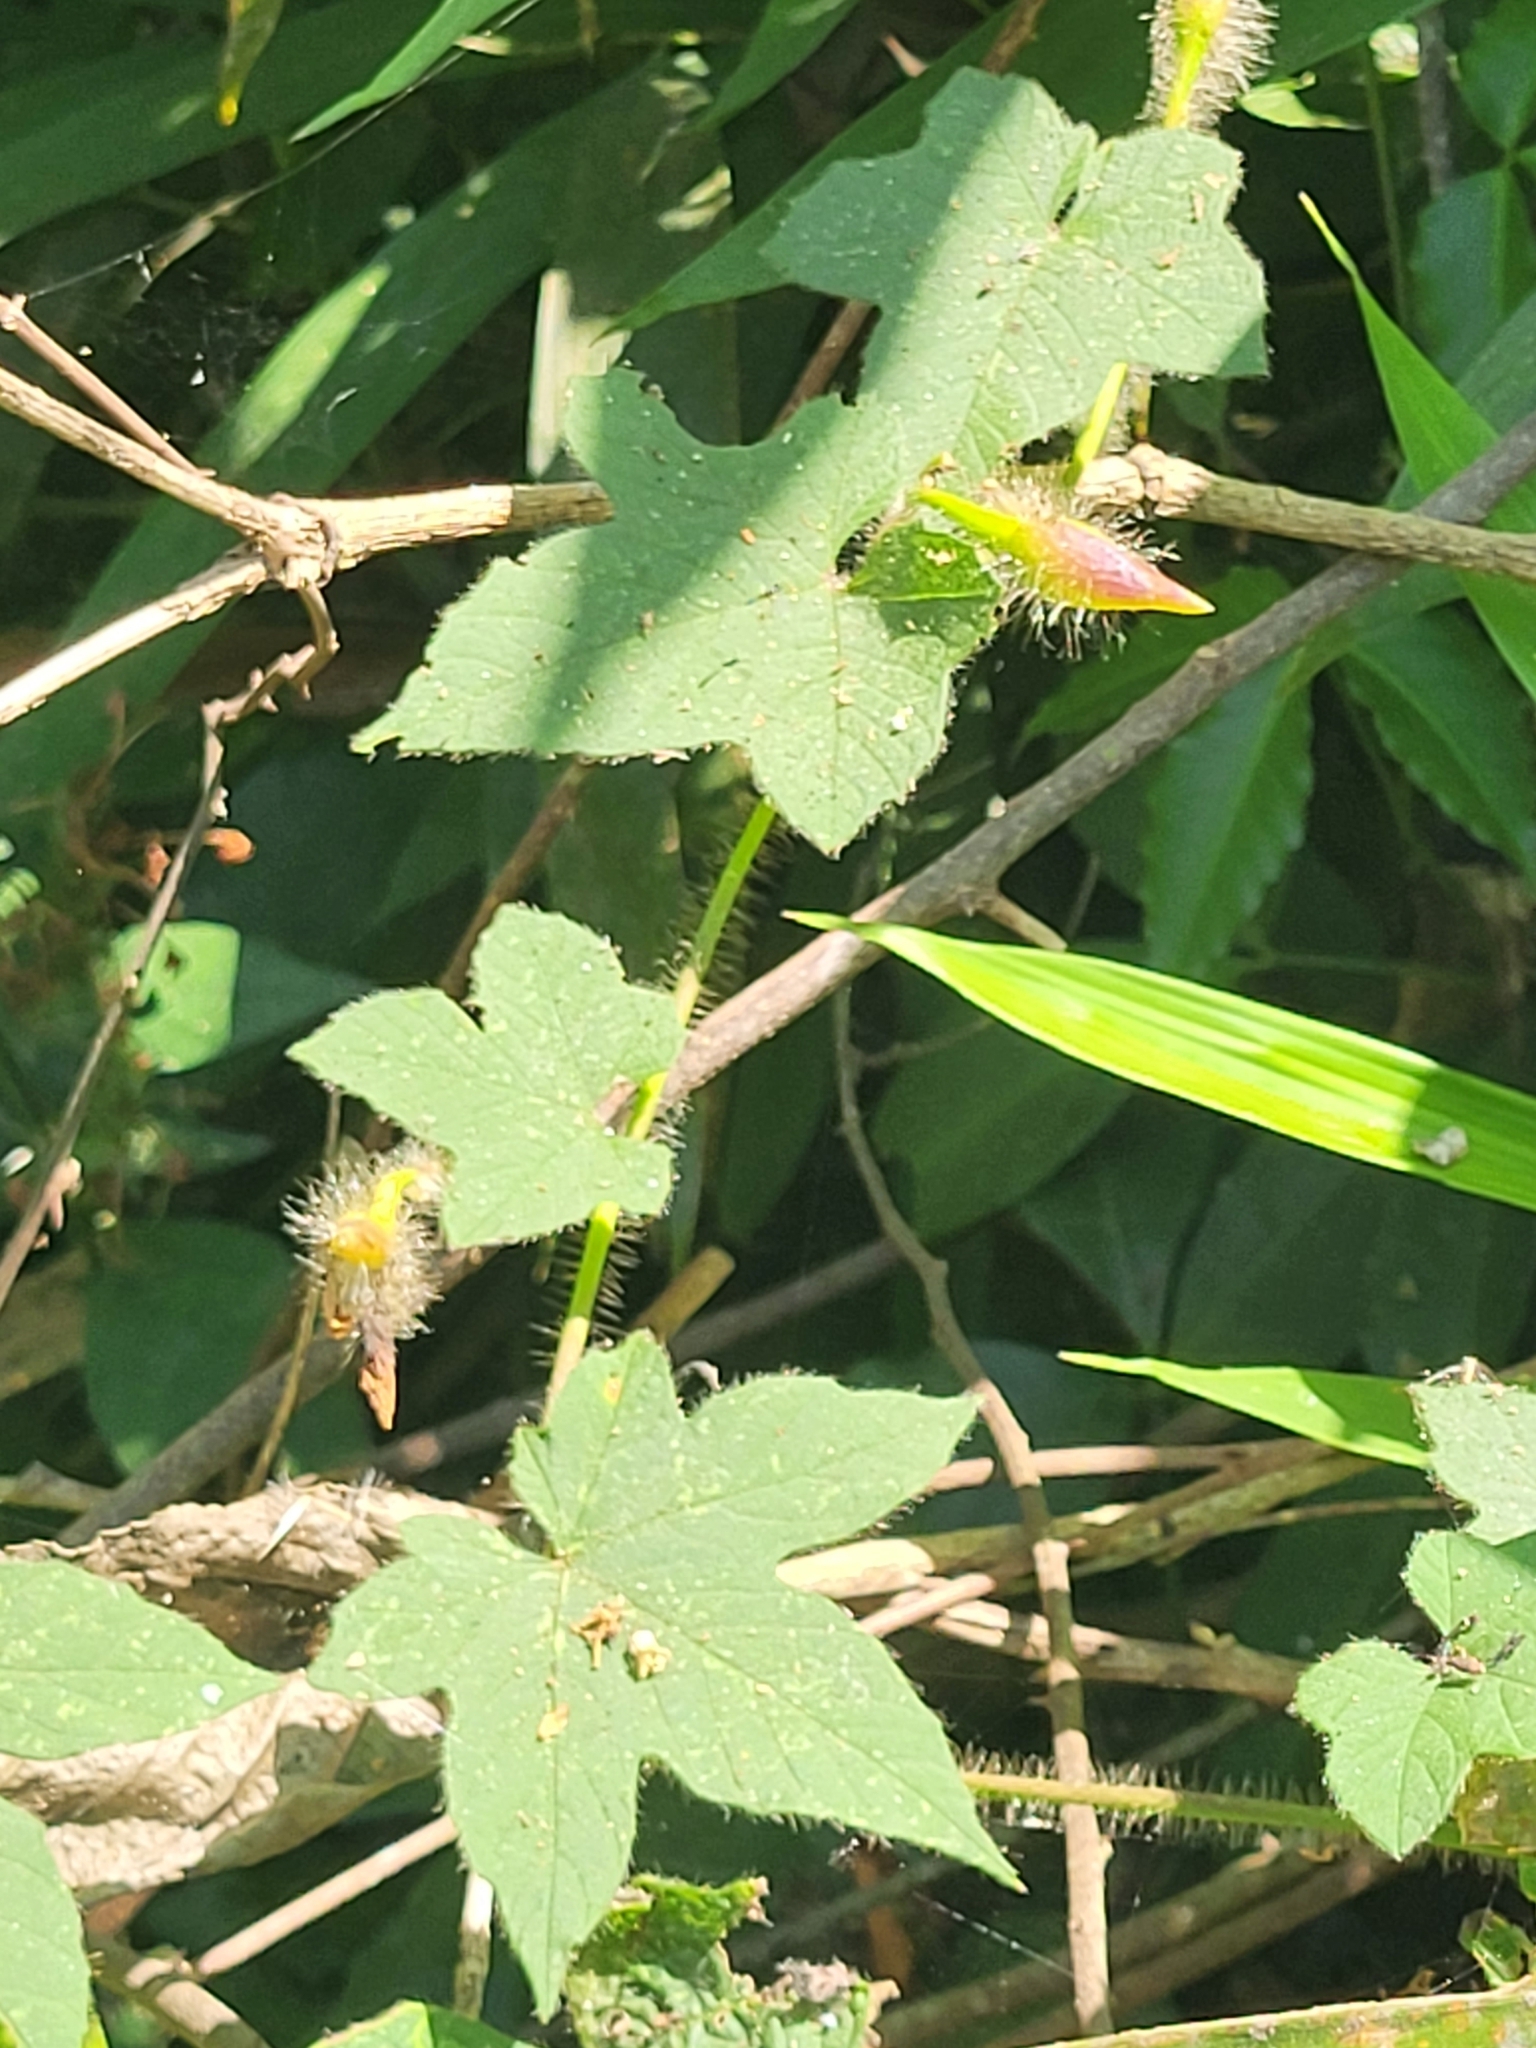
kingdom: Plantae
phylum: Tracheophyta
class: Magnoliopsida
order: Solanales
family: Convolvulaceae
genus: Distimake
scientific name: Distimake
